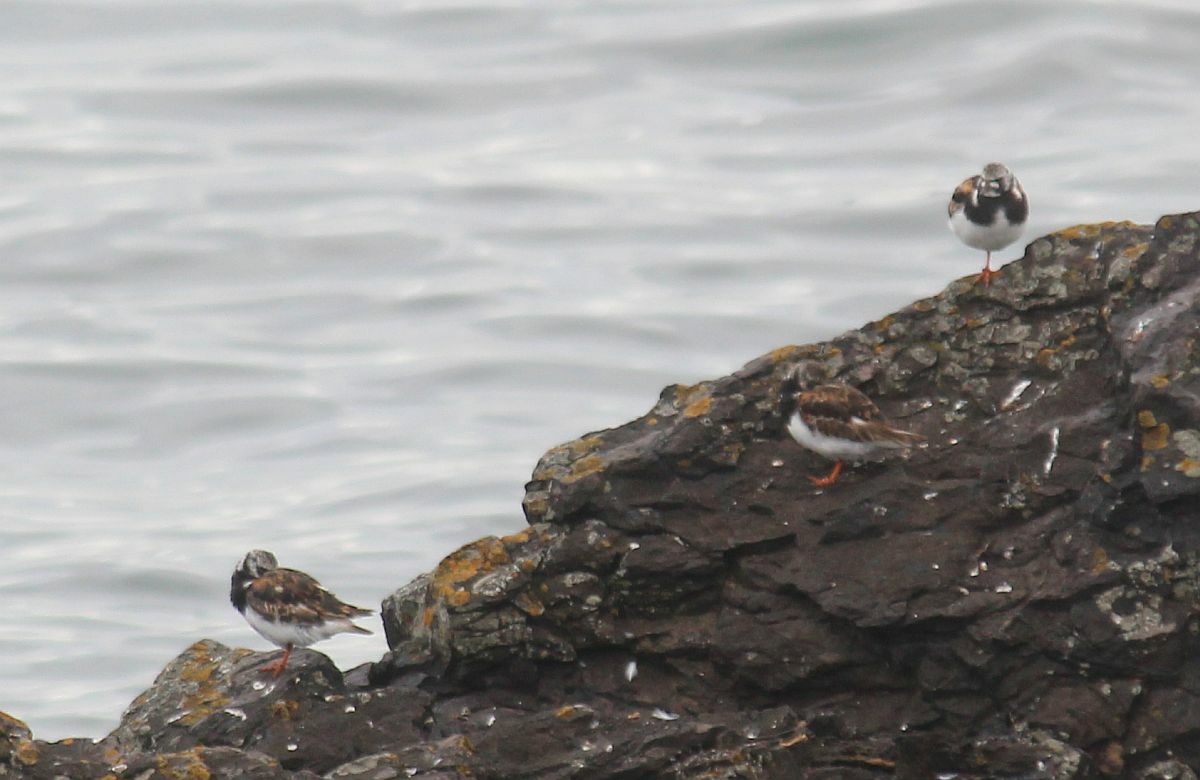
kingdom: Animalia
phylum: Chordata
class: Aves
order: Charadriiformes
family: Scolopacidae
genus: Arenaria
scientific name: Arenaria interpres
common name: Ruddy turnstone
